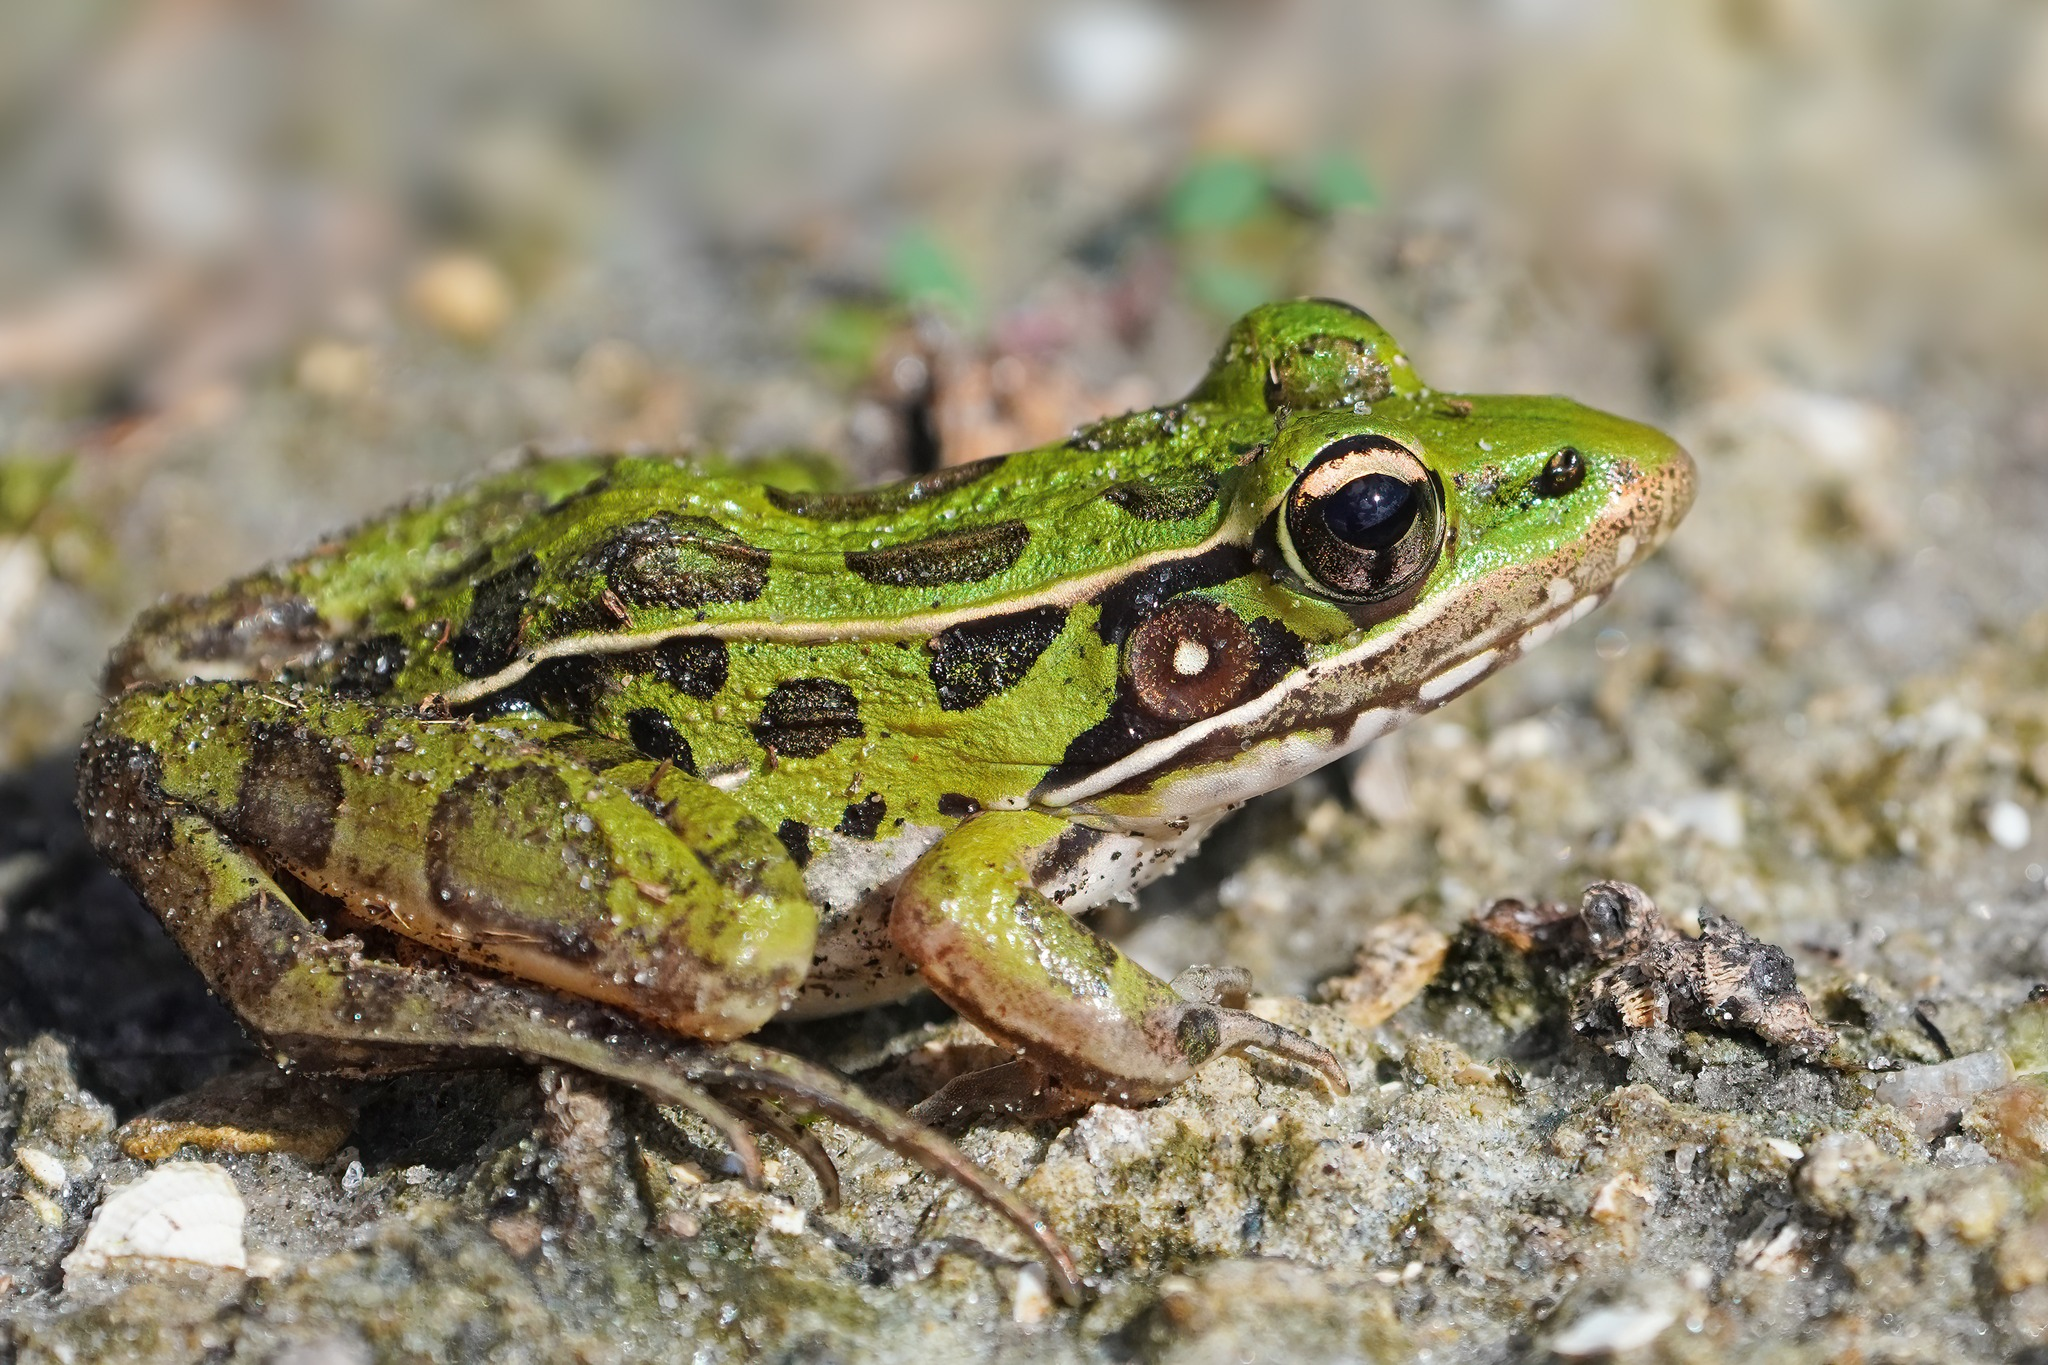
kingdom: Animalia
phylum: Chordata
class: Amphibia
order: Anura
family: Ranidae
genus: Lithobates
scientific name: Lithobates sphenocephalus
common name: Southern leopard frog
